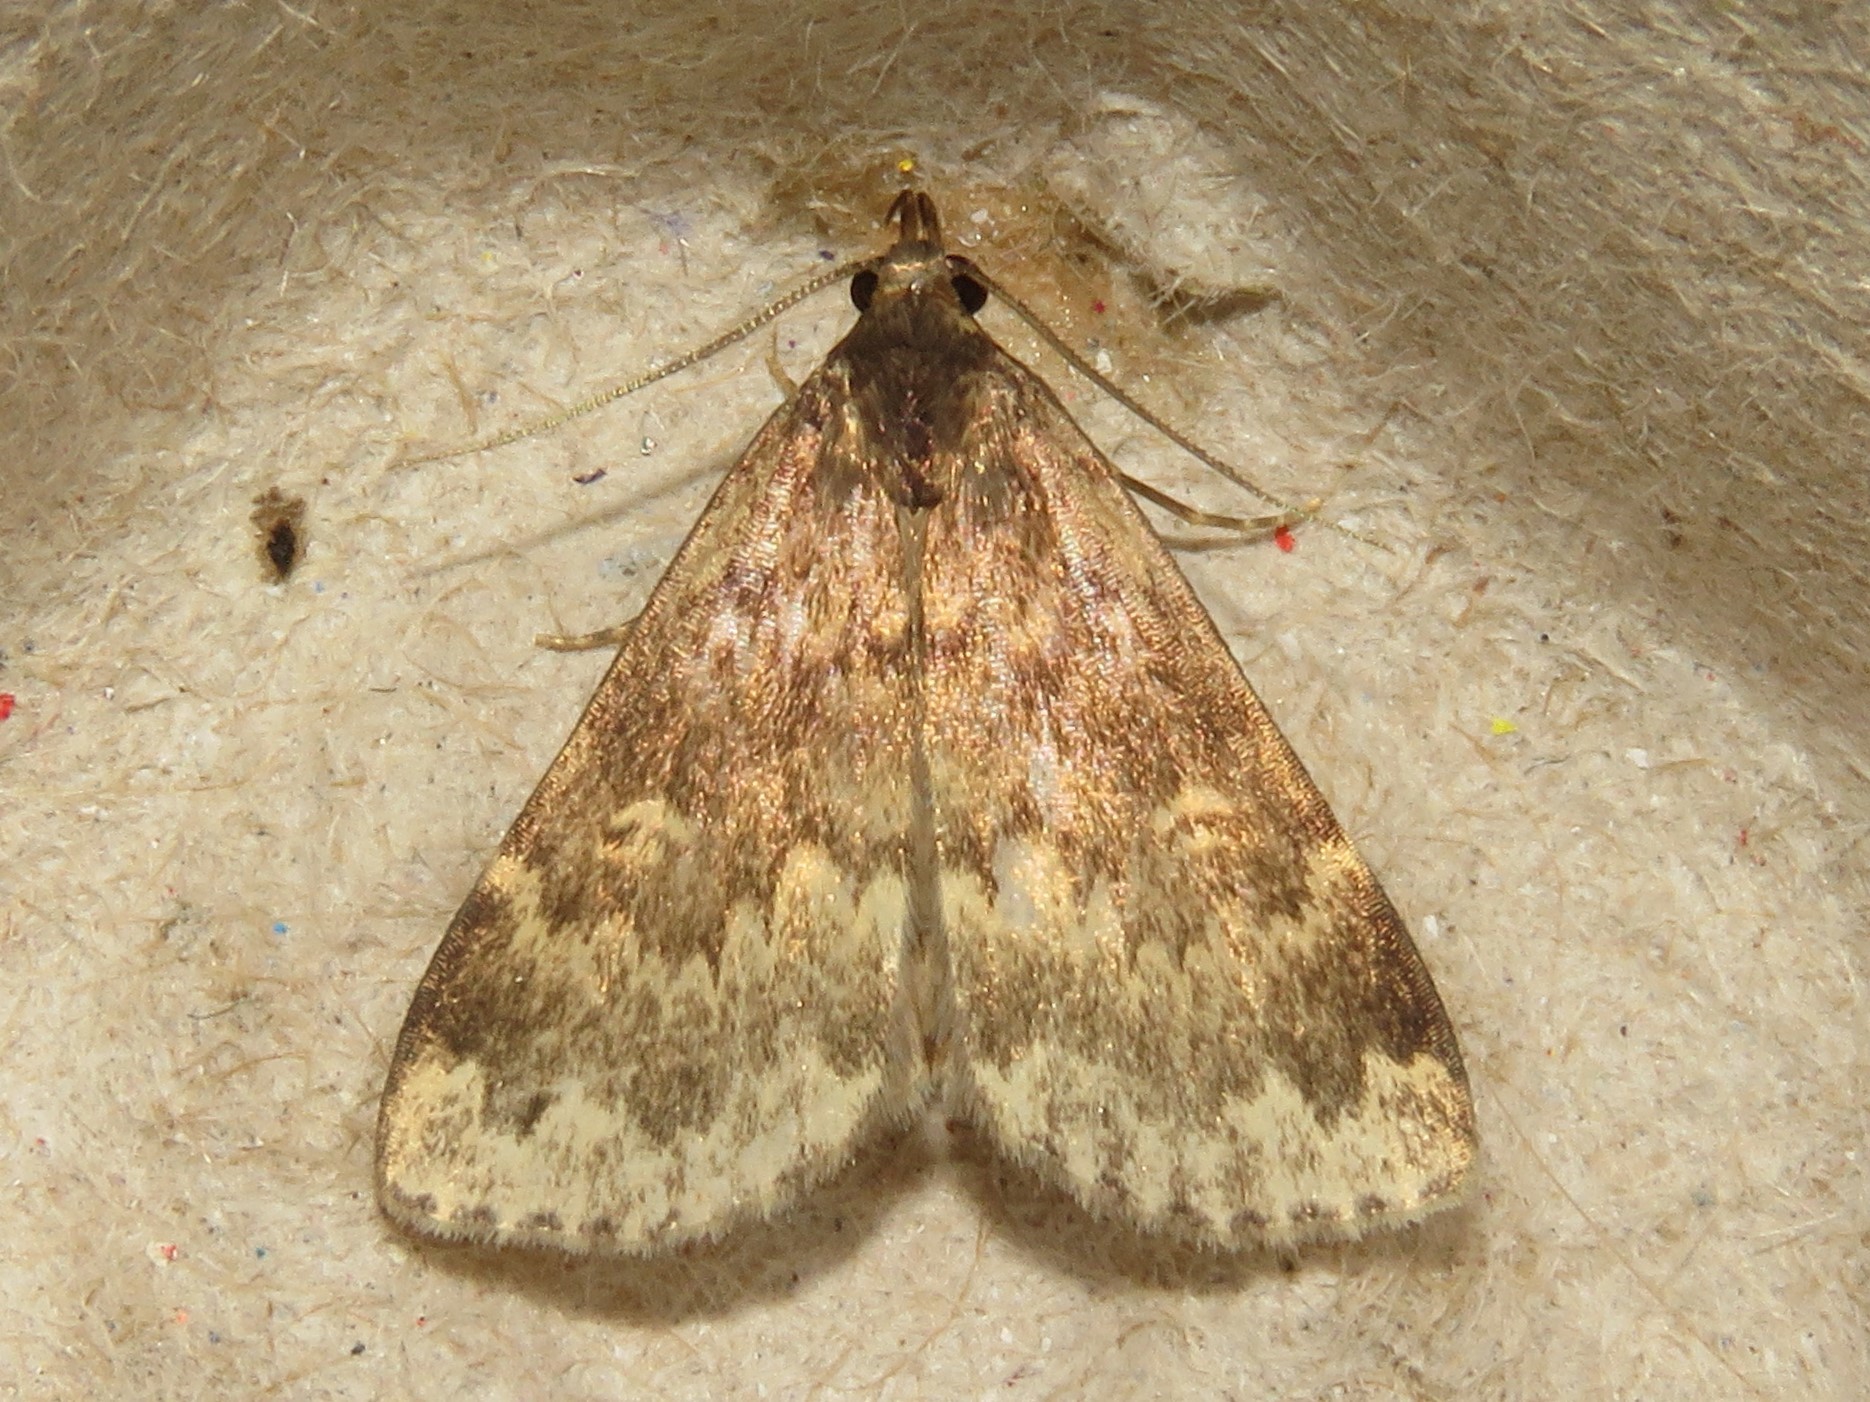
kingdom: Animalia
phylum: Arthropoda
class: Insecta
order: Lepidoptera
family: Erebidae
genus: Idia
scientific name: Idia lubricalis
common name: Twin-striped tabby
